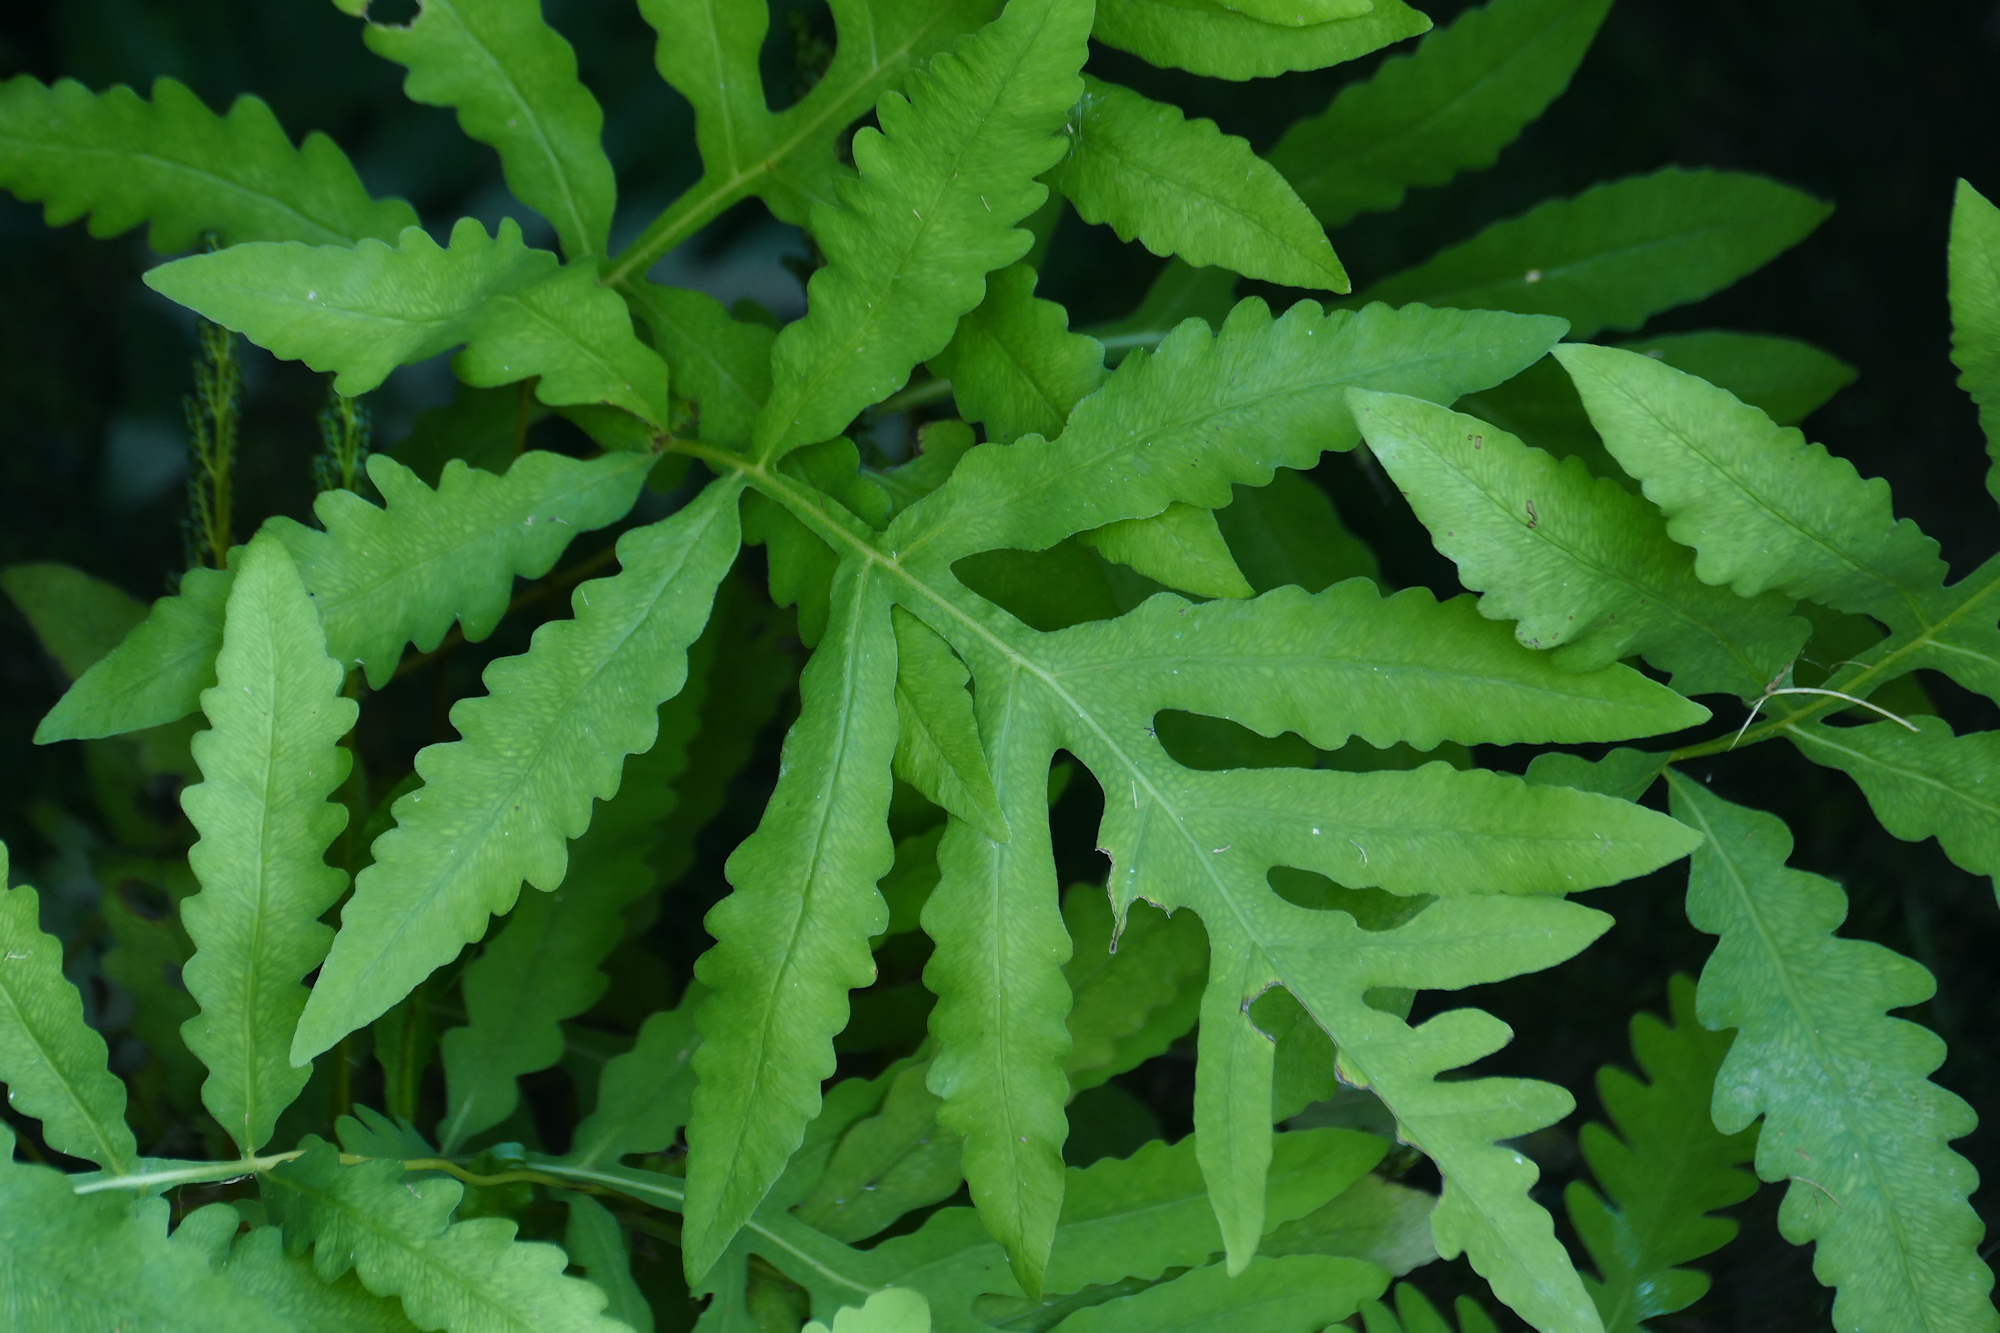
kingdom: Plantae
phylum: Tracheophyta
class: Polypodiopsida
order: Polypodiales
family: Onocleaceae
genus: Onoclea
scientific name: Onoclea sensibilis
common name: Sensitive fern
